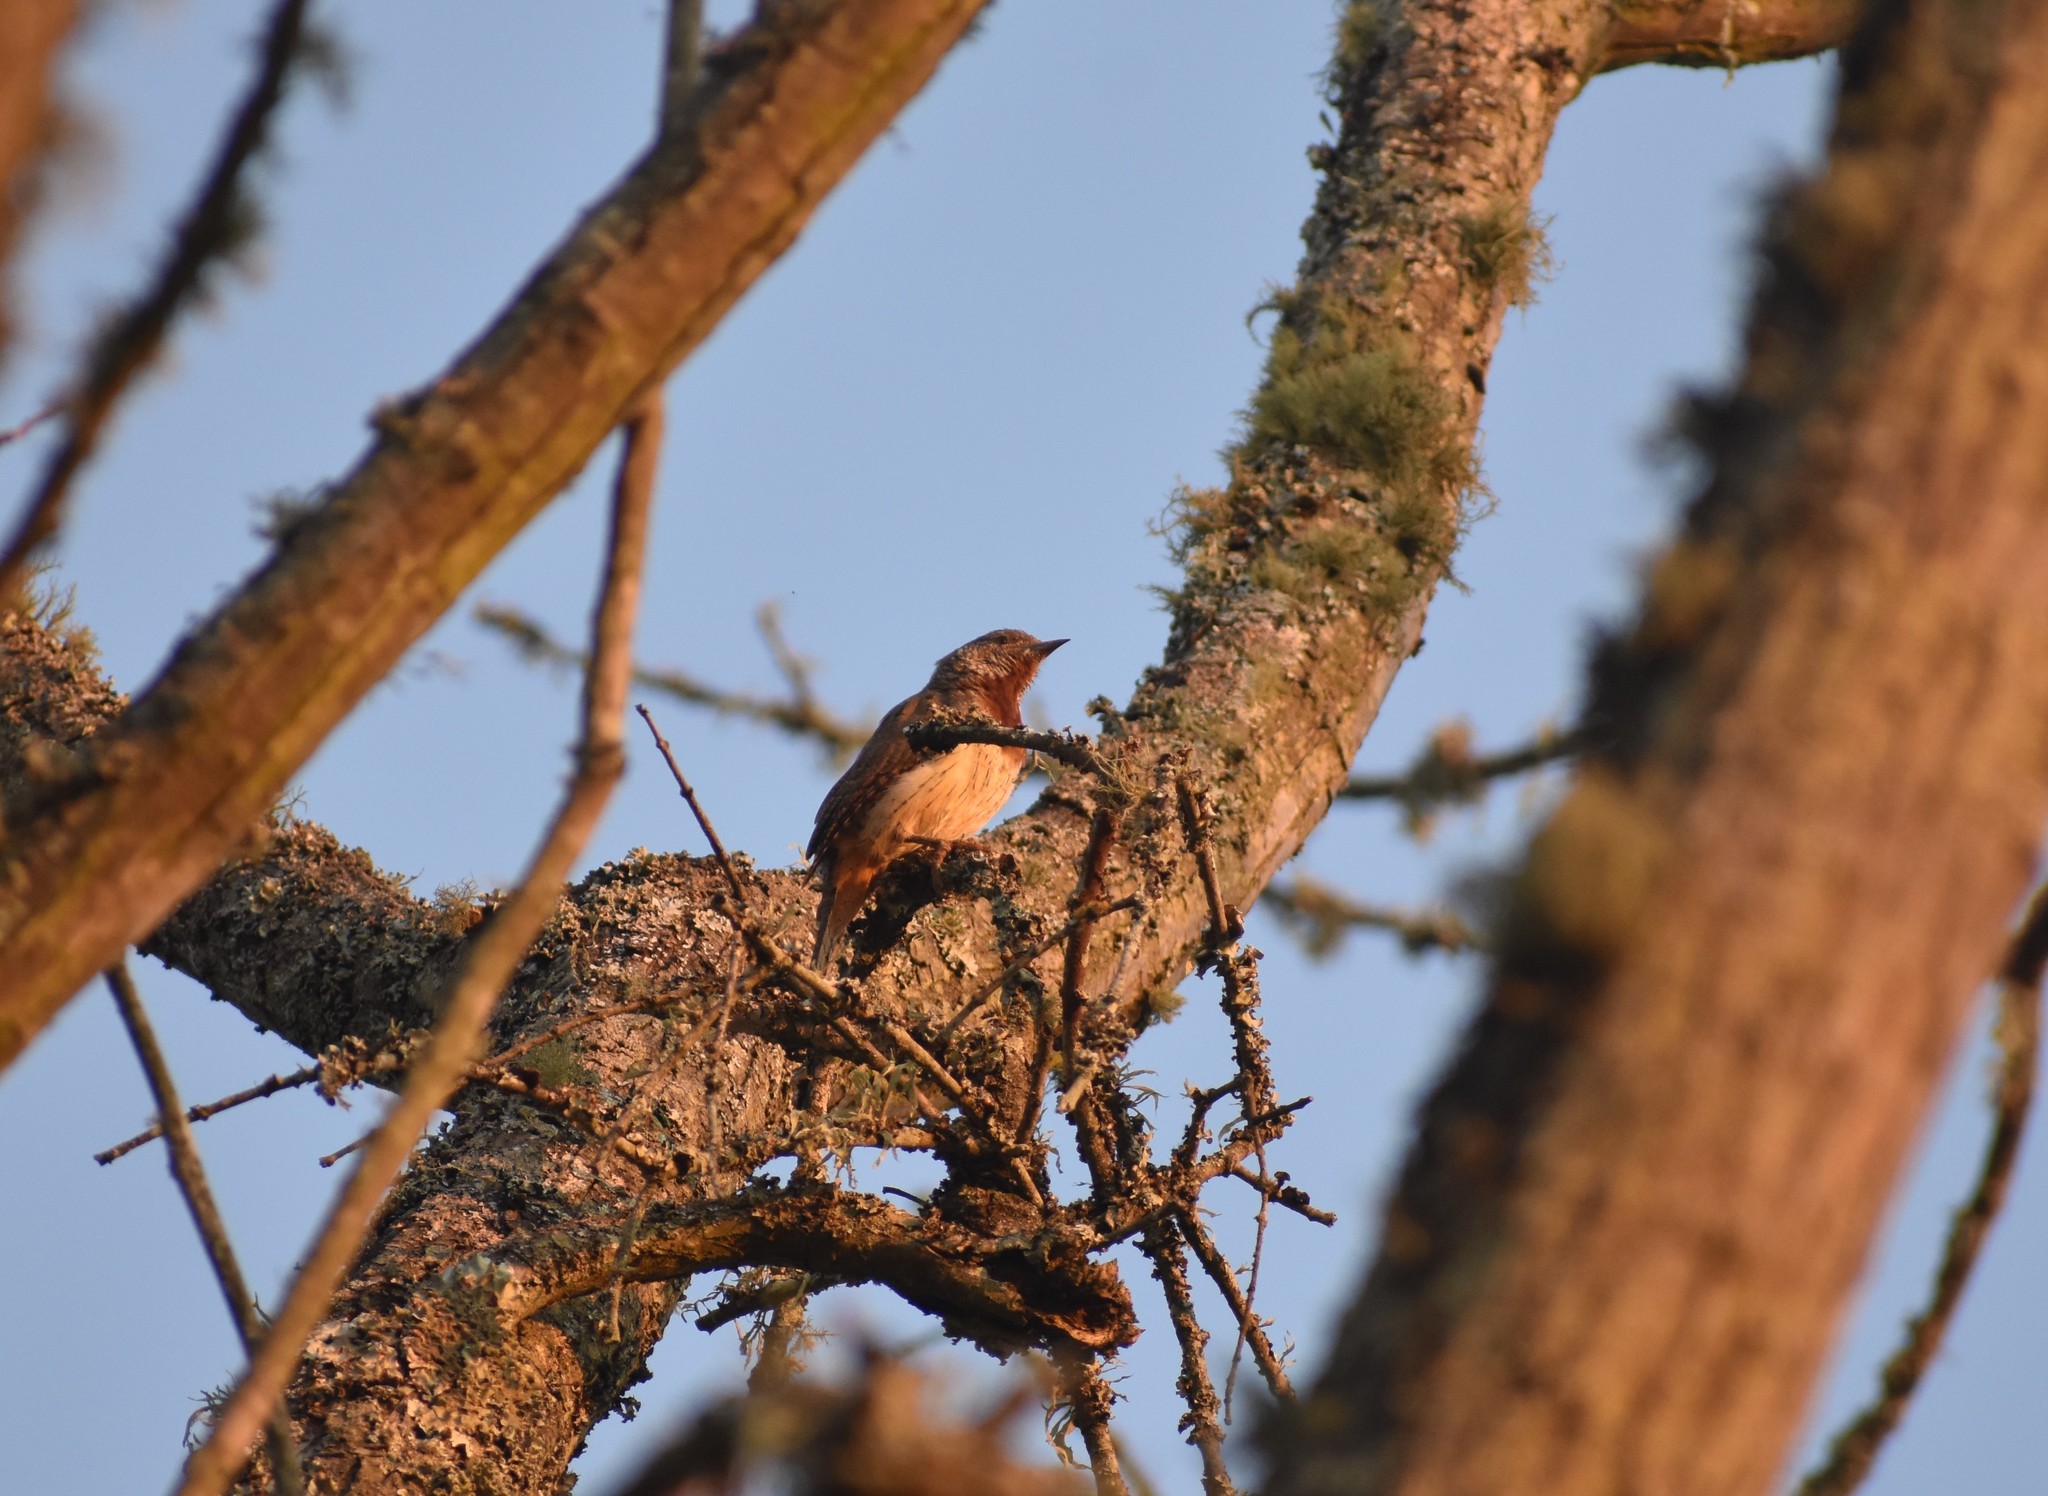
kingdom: Animalia
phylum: Chordata
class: Aves
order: Piciformes
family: Picidae
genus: Jynx
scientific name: Jynx ruficollis
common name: Red-throated wryneck
